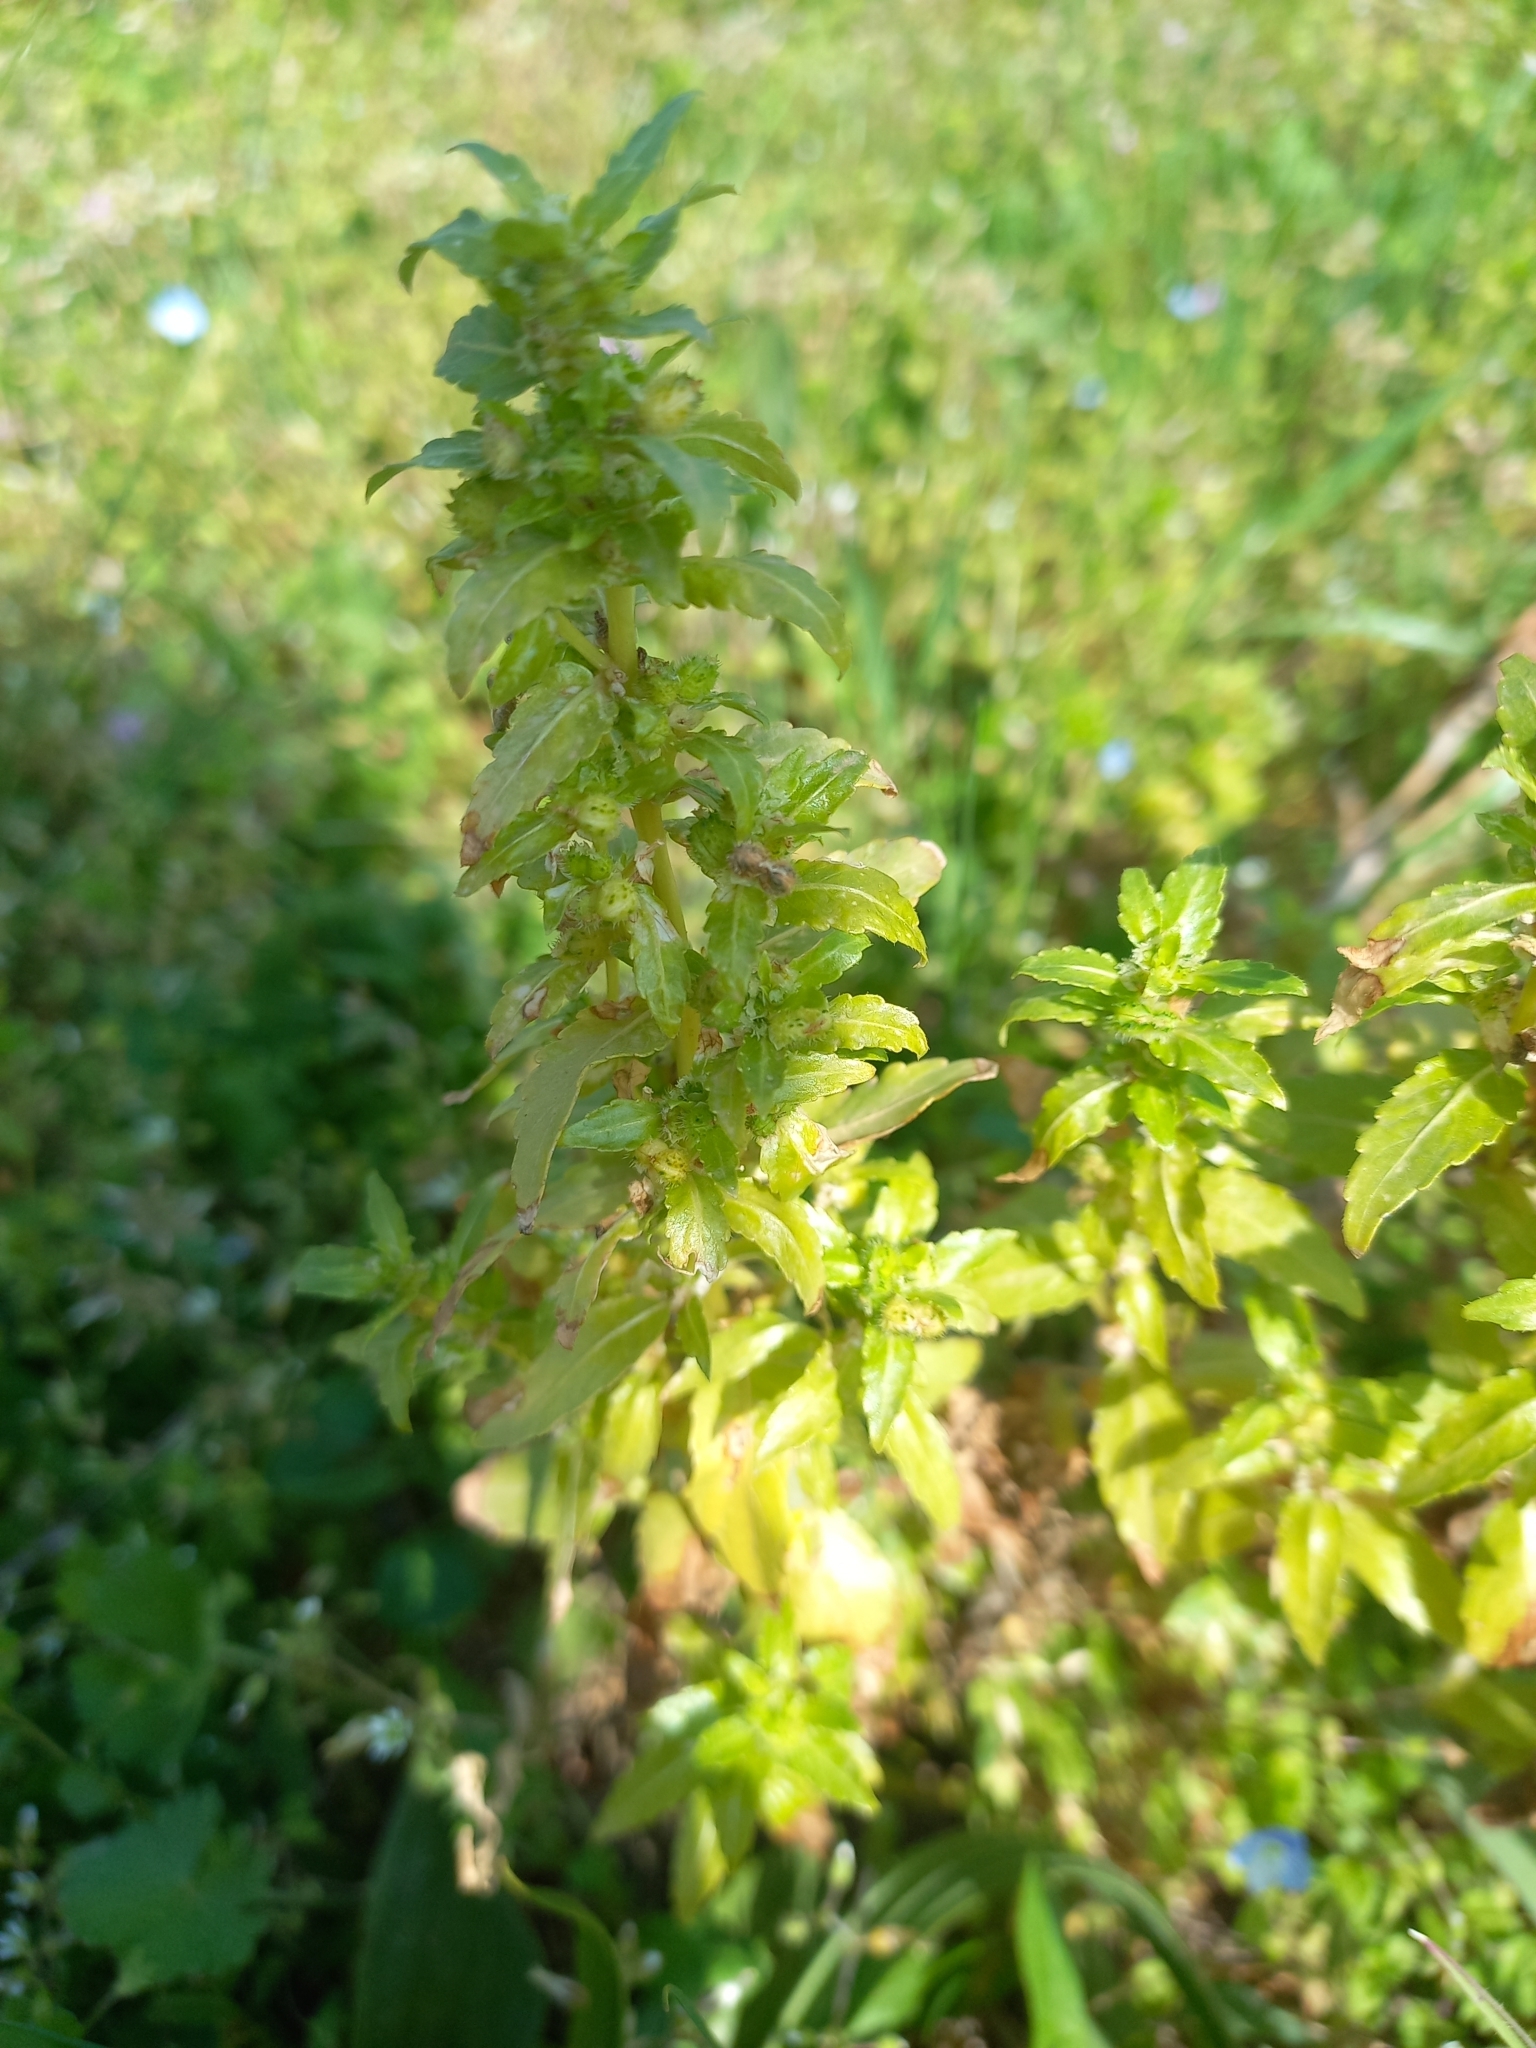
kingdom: Plantae
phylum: Tracheophyta
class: Magnoliopsida
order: Malpighiales
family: Euphorbiaceae
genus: Mercurialis
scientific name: Mercurialis annua
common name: Annual mercury
